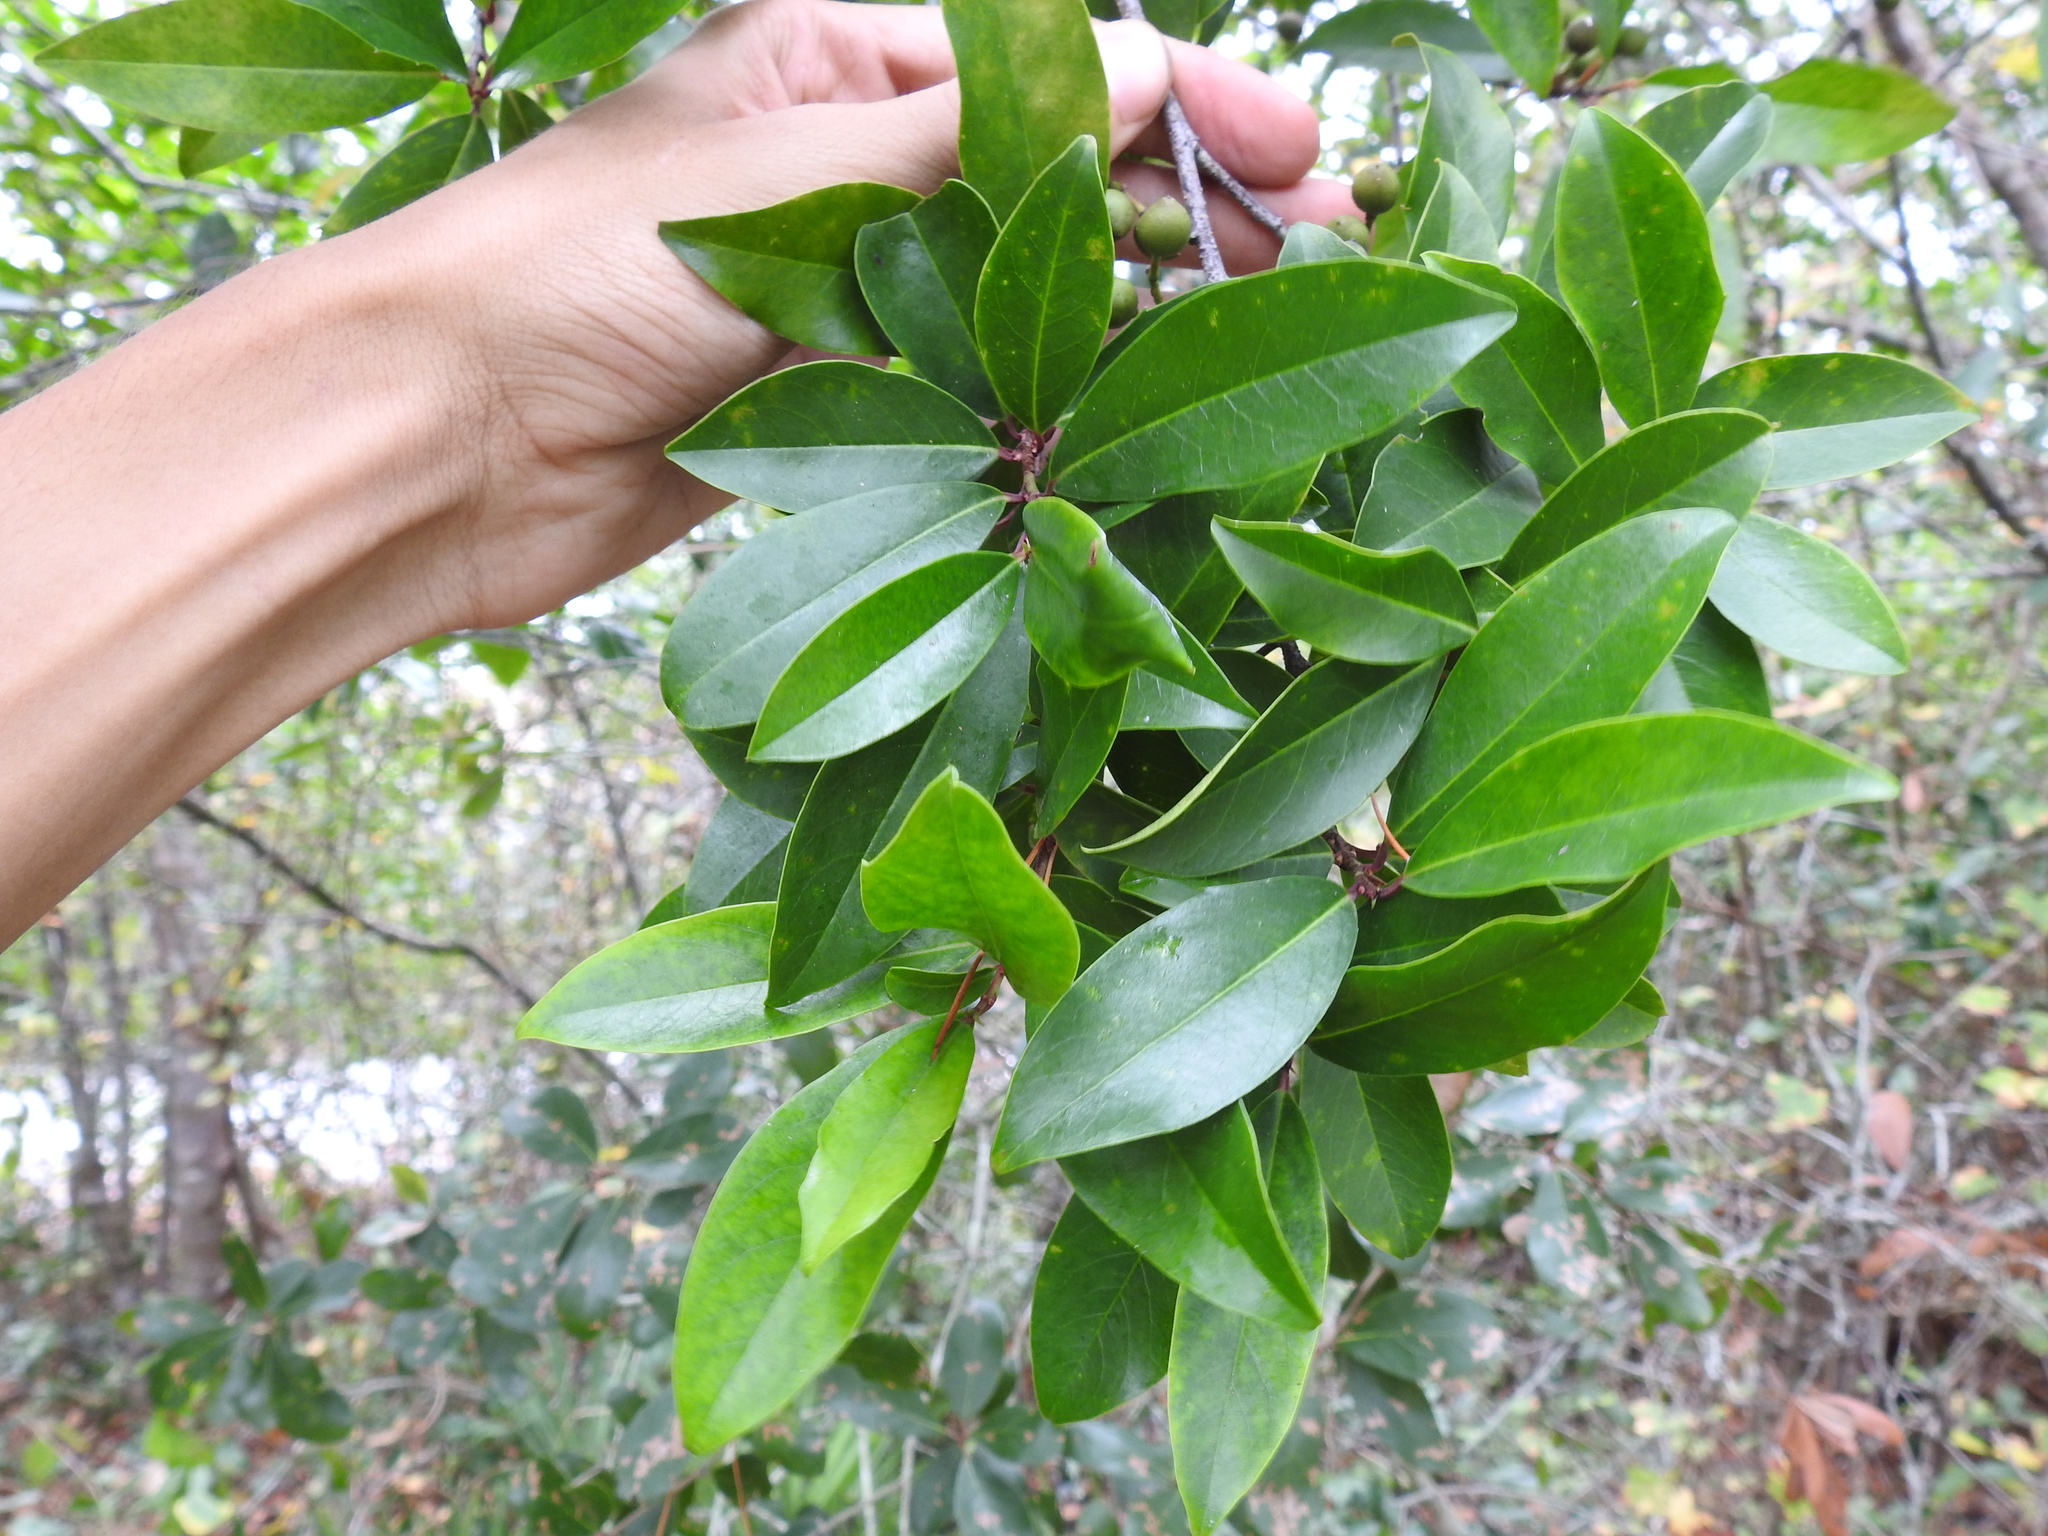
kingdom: Plantae
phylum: Tracheophyta
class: Magnoliopsida
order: Rosales
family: Rosaceae
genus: Prunus
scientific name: Prunus caroliniana
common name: Carolina laurel cherry
